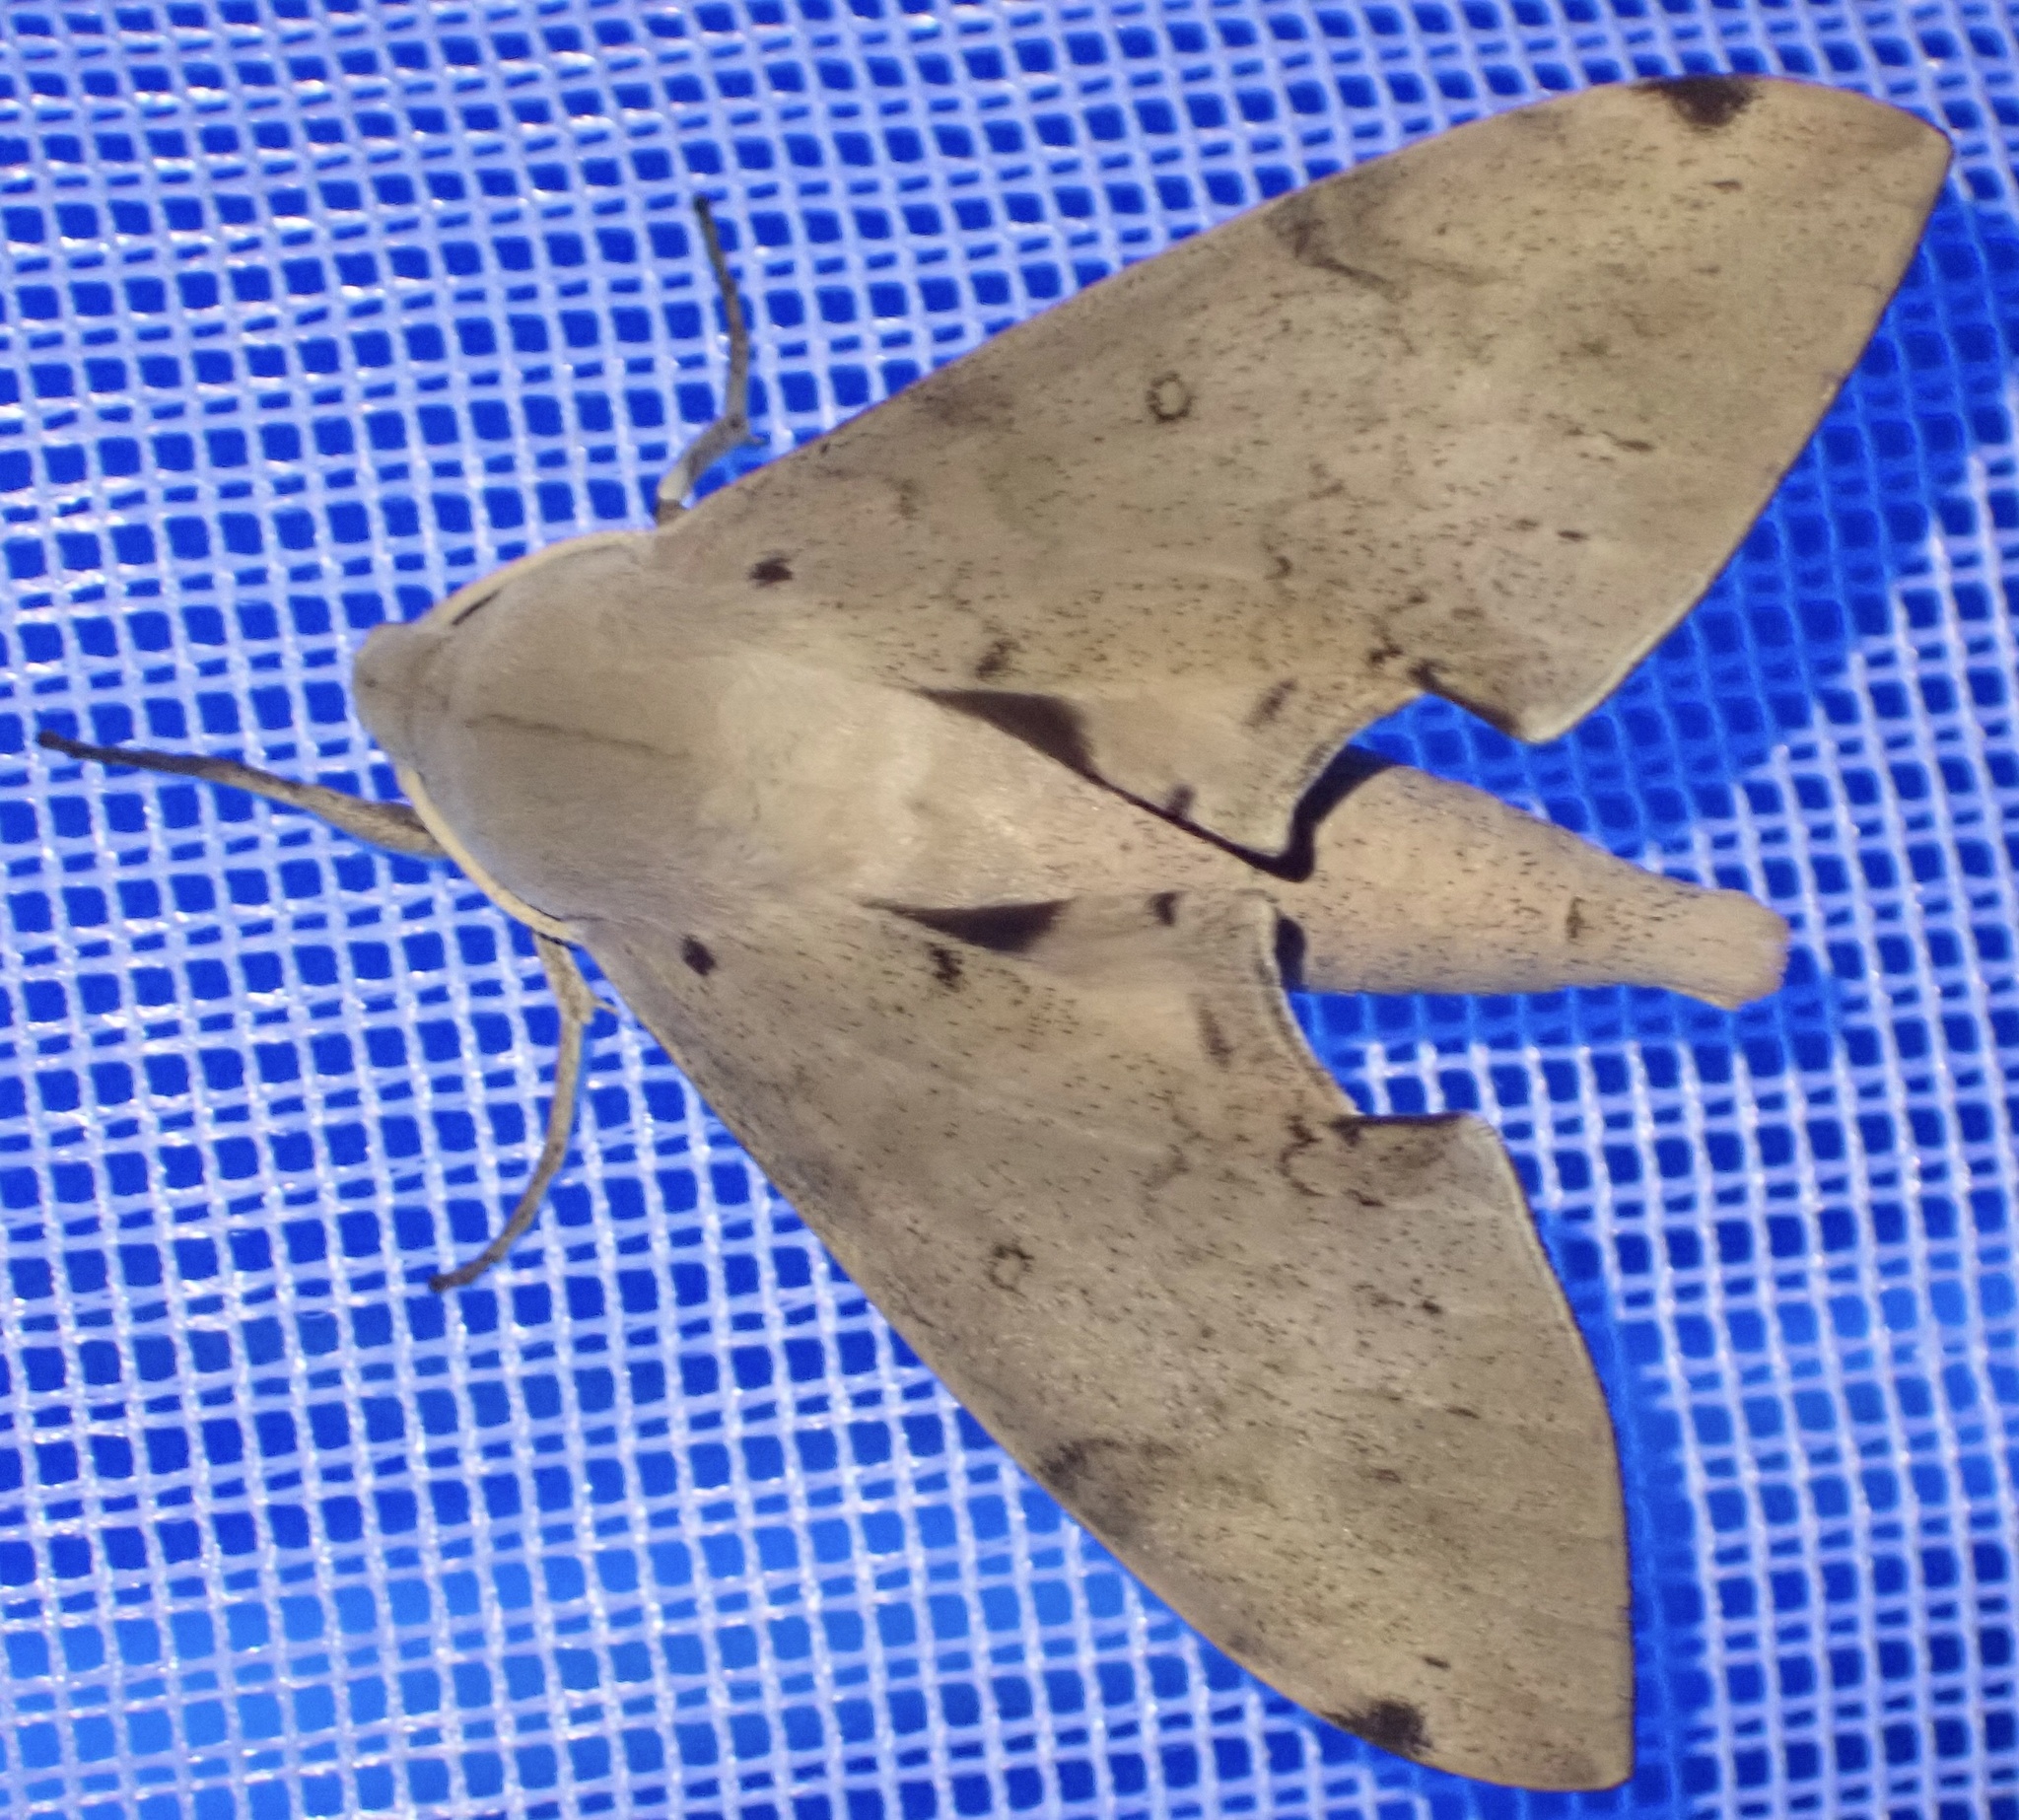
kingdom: Animalia
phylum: Arthropoda
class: Insecta
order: Lepidoptera
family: Sphingidae
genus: Polyptychus
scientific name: Polyptychus girardi
